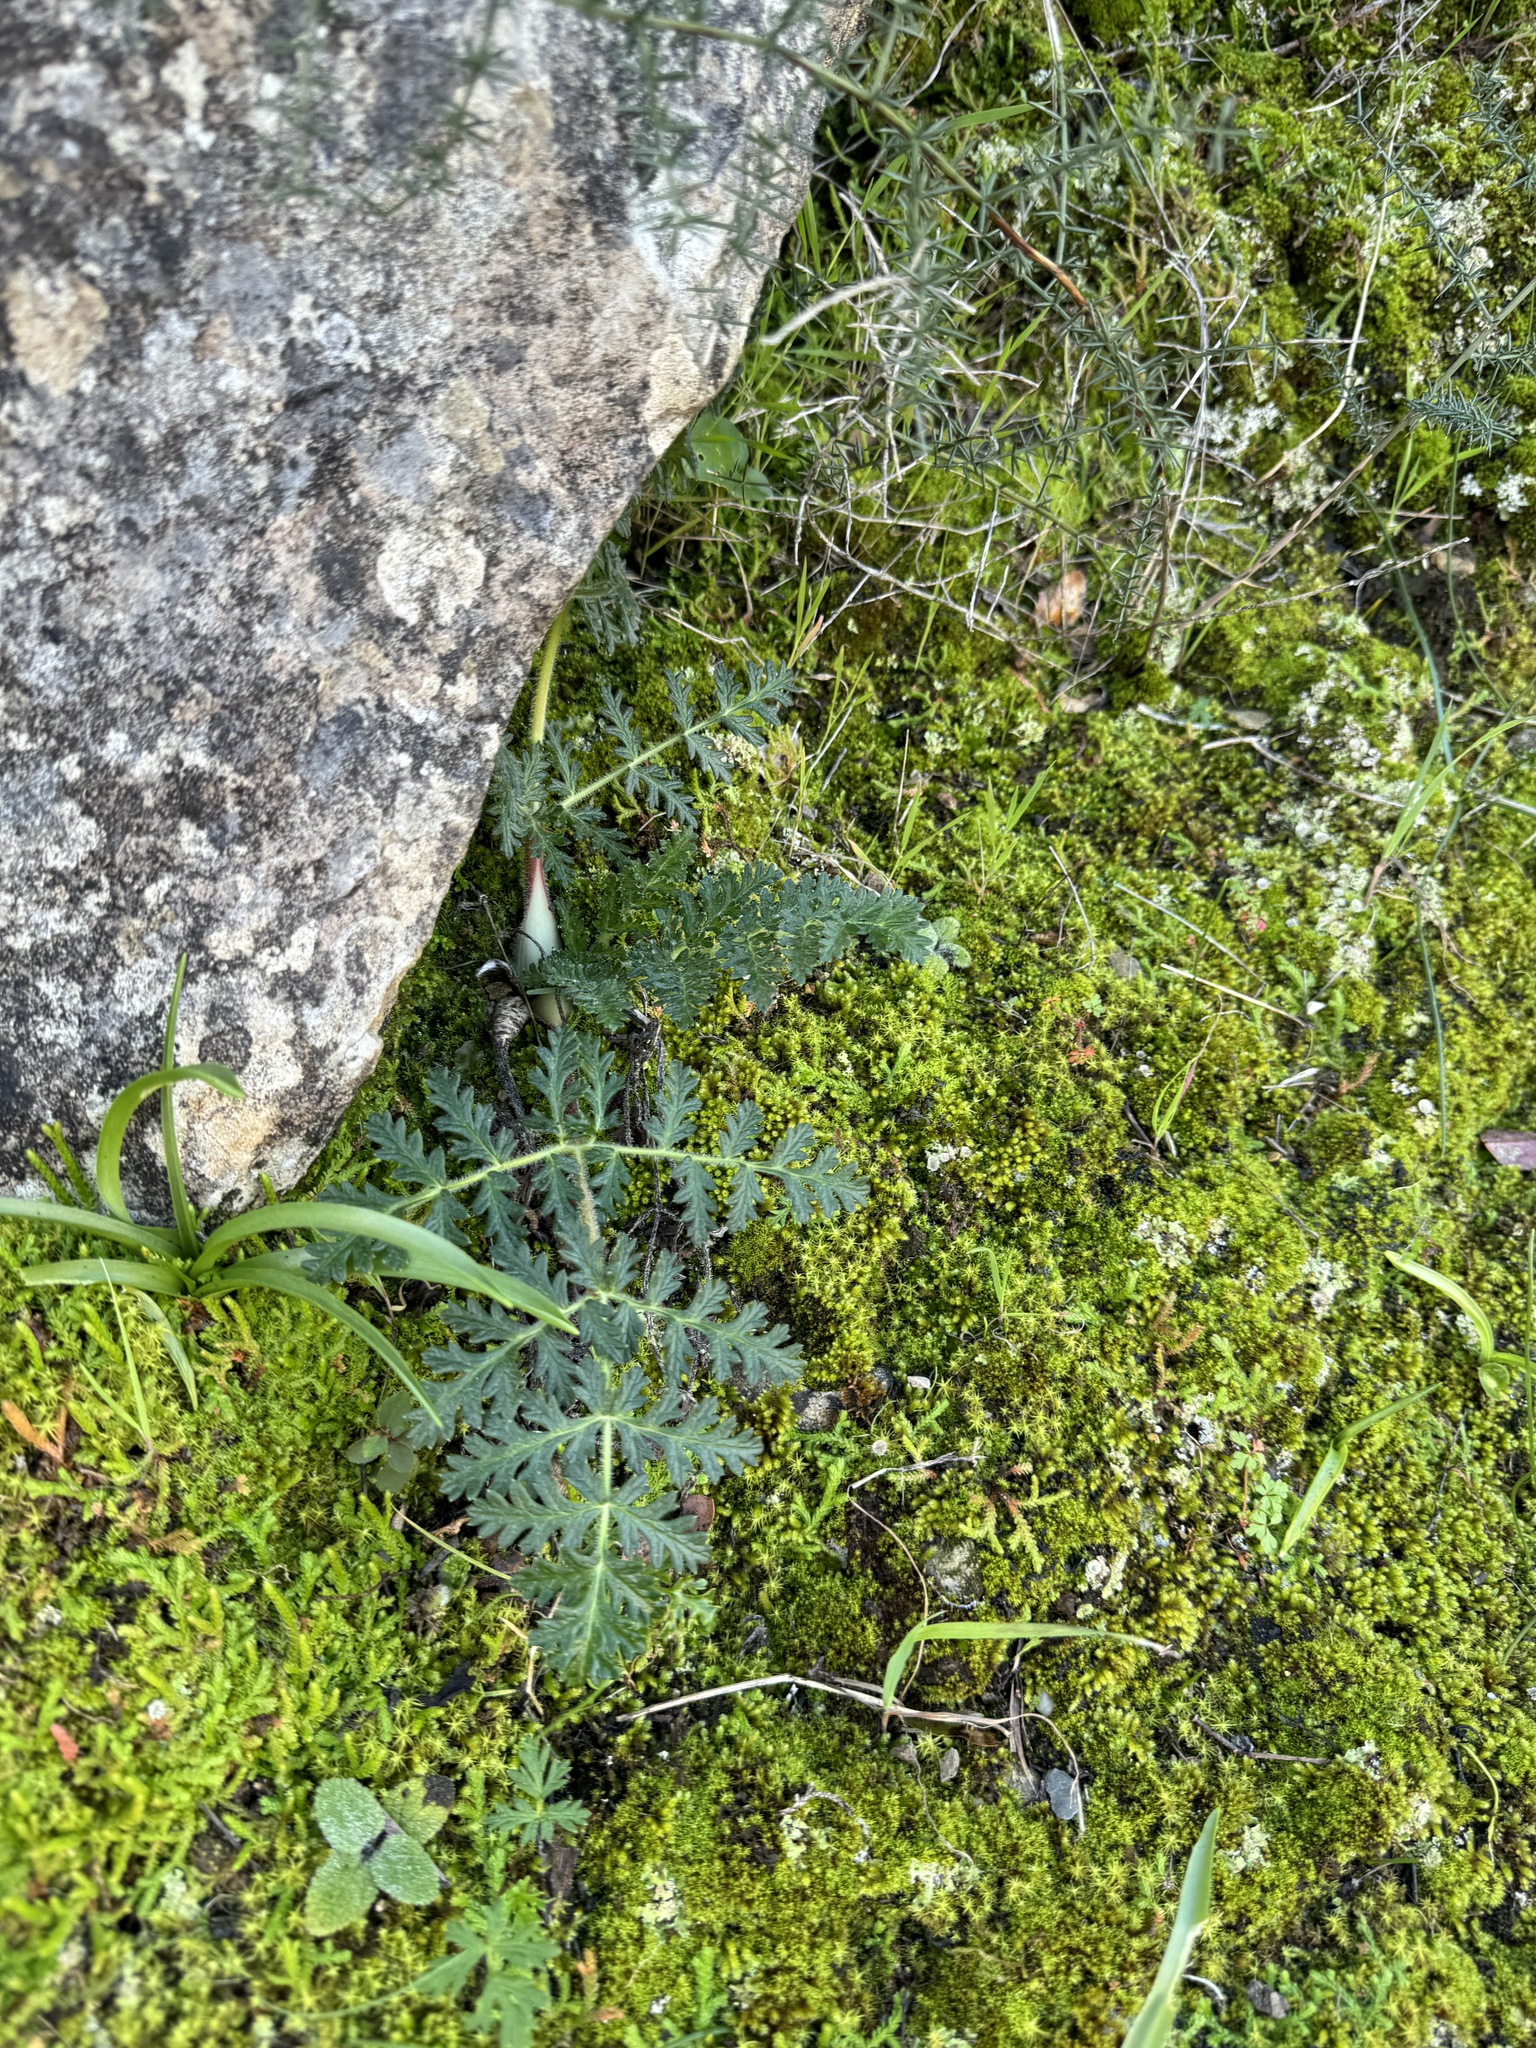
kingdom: Plantae
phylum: Tracheophyta
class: Magnoliopsida
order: Apiales
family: Apiaceae
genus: Thapsia
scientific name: Thapsia villosa
